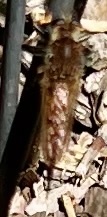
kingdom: Animalia
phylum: Arthropoda
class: Insecta
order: Diptera
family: Asilidae
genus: Promachus
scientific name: Promachus rufipes
